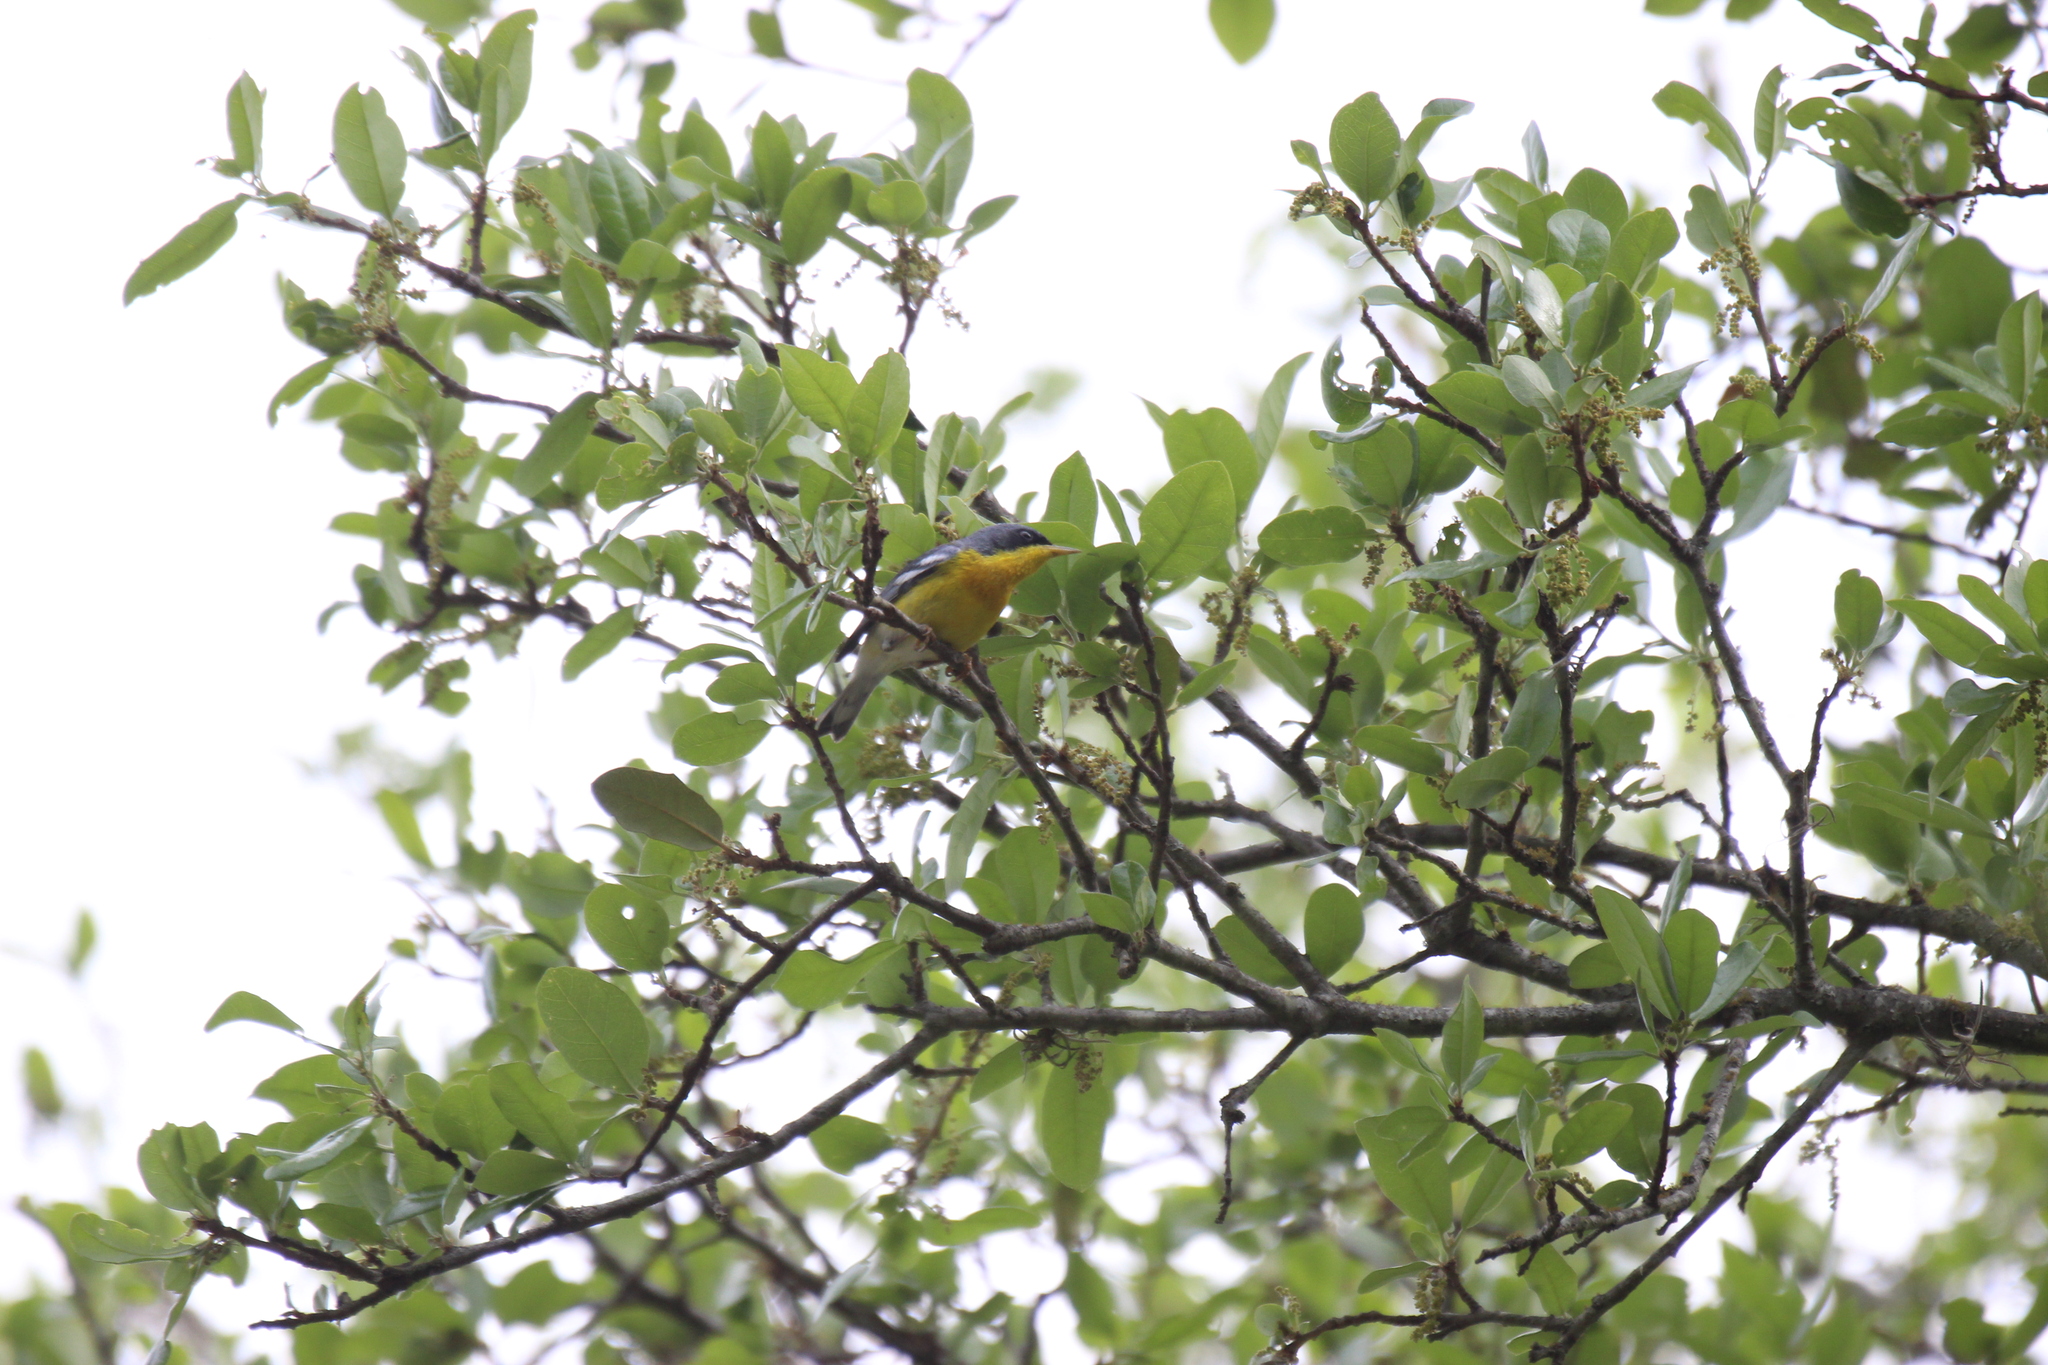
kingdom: Animalia
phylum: Chordata
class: Aves
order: Passeriformes
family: Parulidae
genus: Setophaga
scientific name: Setophaga pitiayumi
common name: Tropical parula
